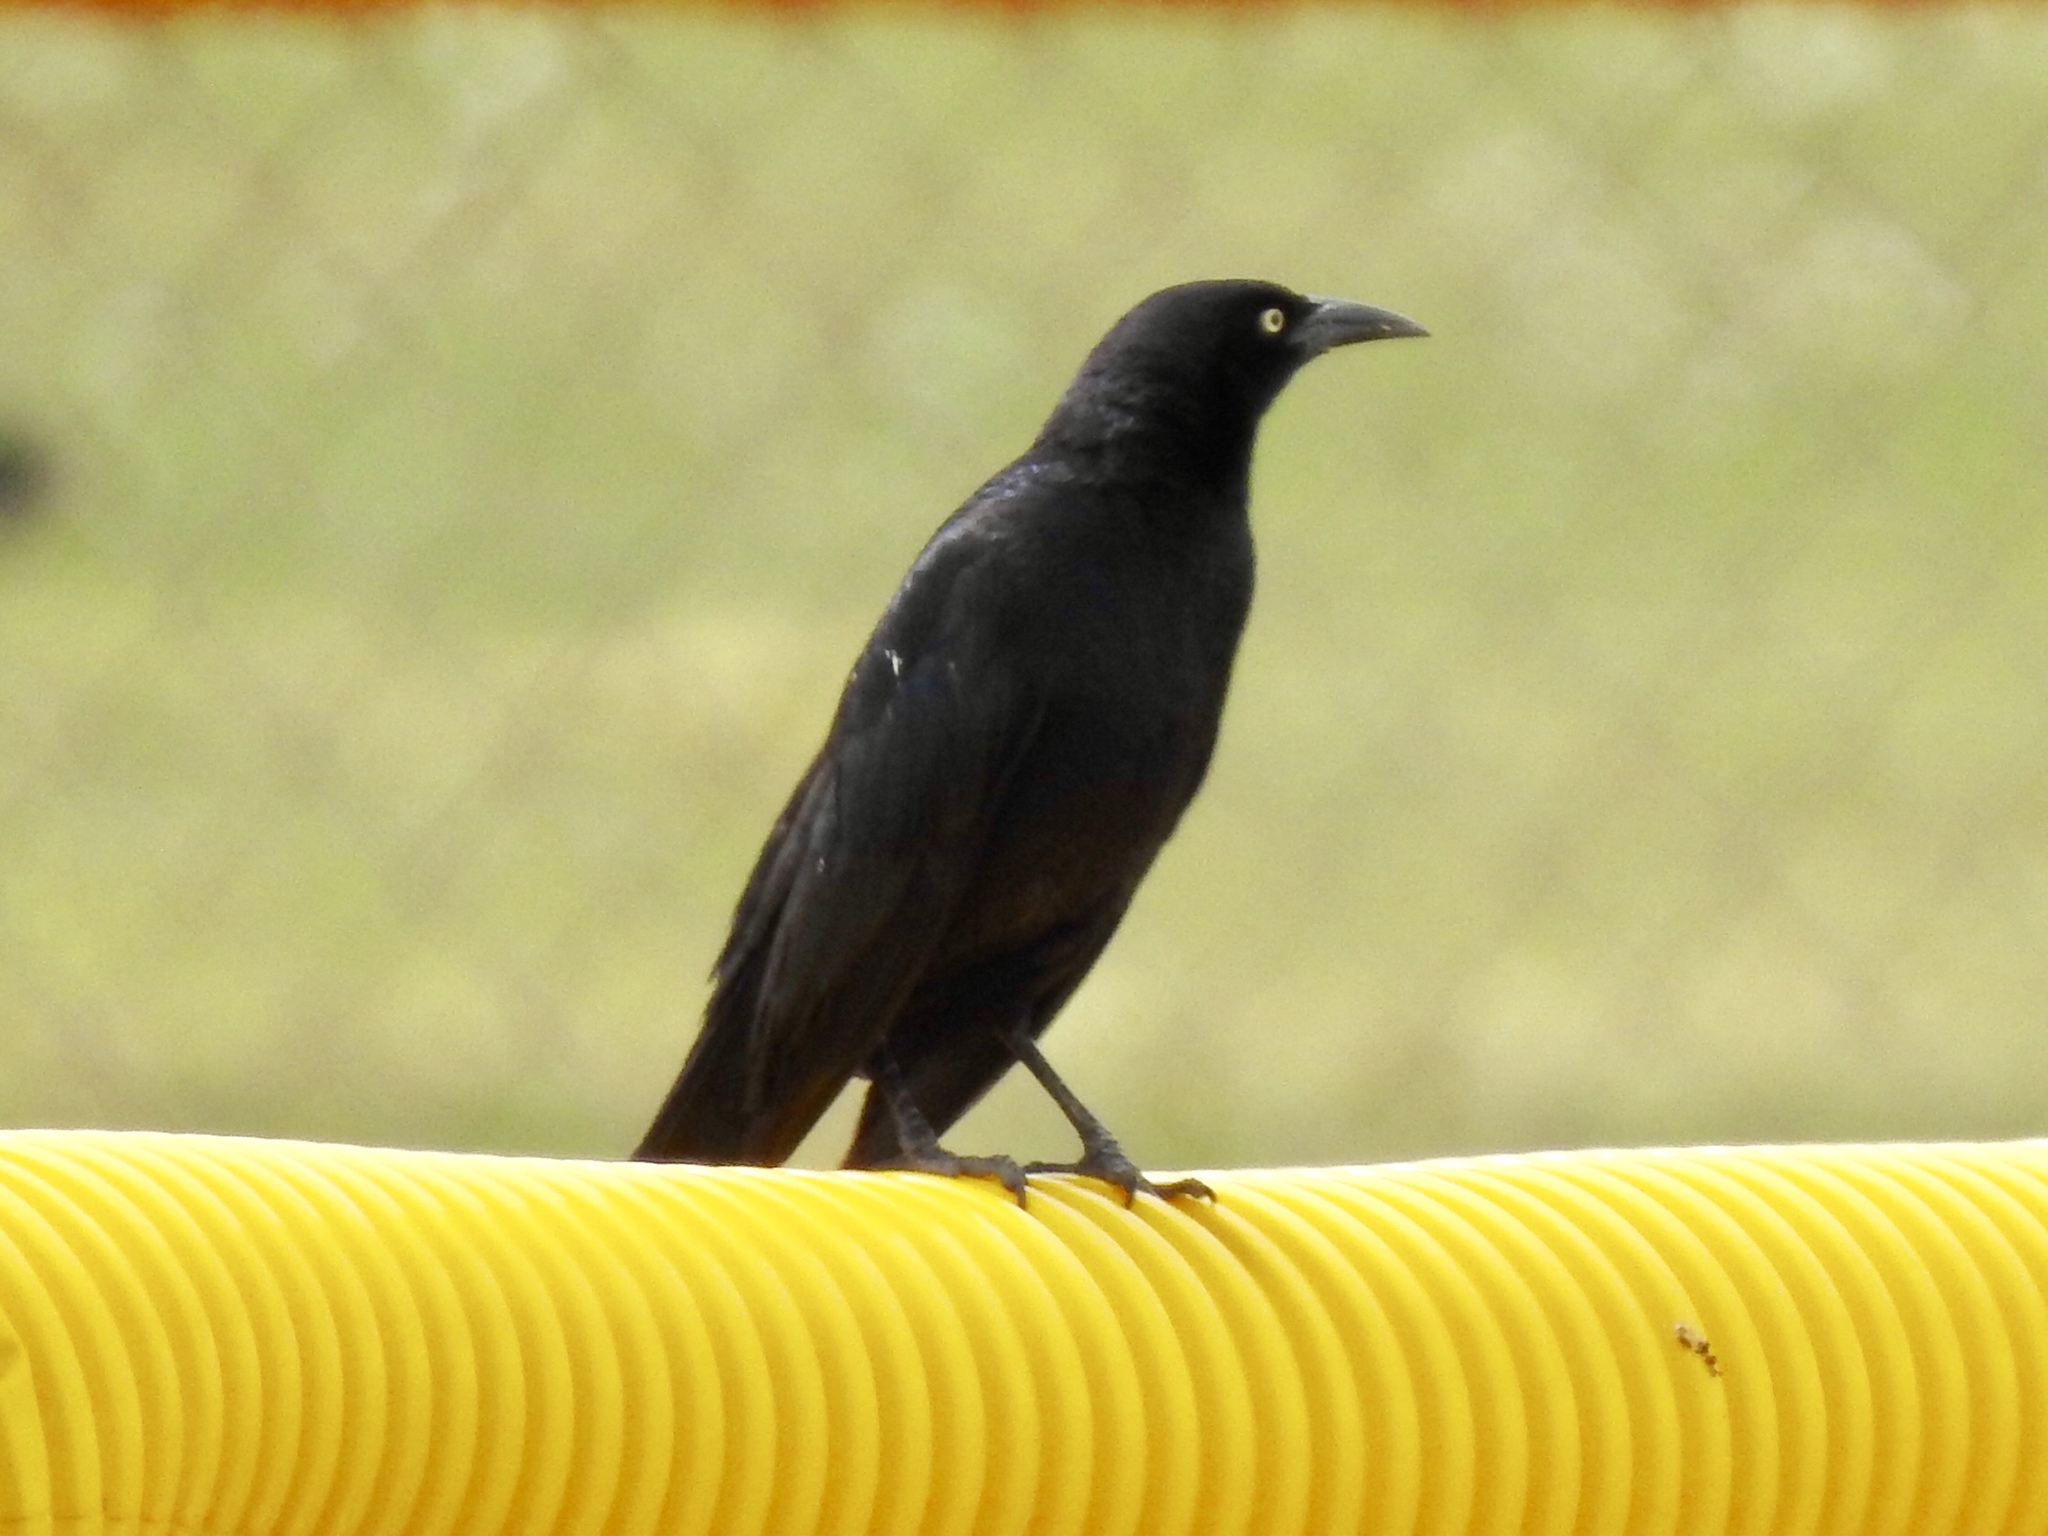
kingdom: Animalia
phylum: Chordata
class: Aves
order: Passeriformes
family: Icteridae
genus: Quiscalus
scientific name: Quiscalus mexicanus
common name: Great-tailed grackle
